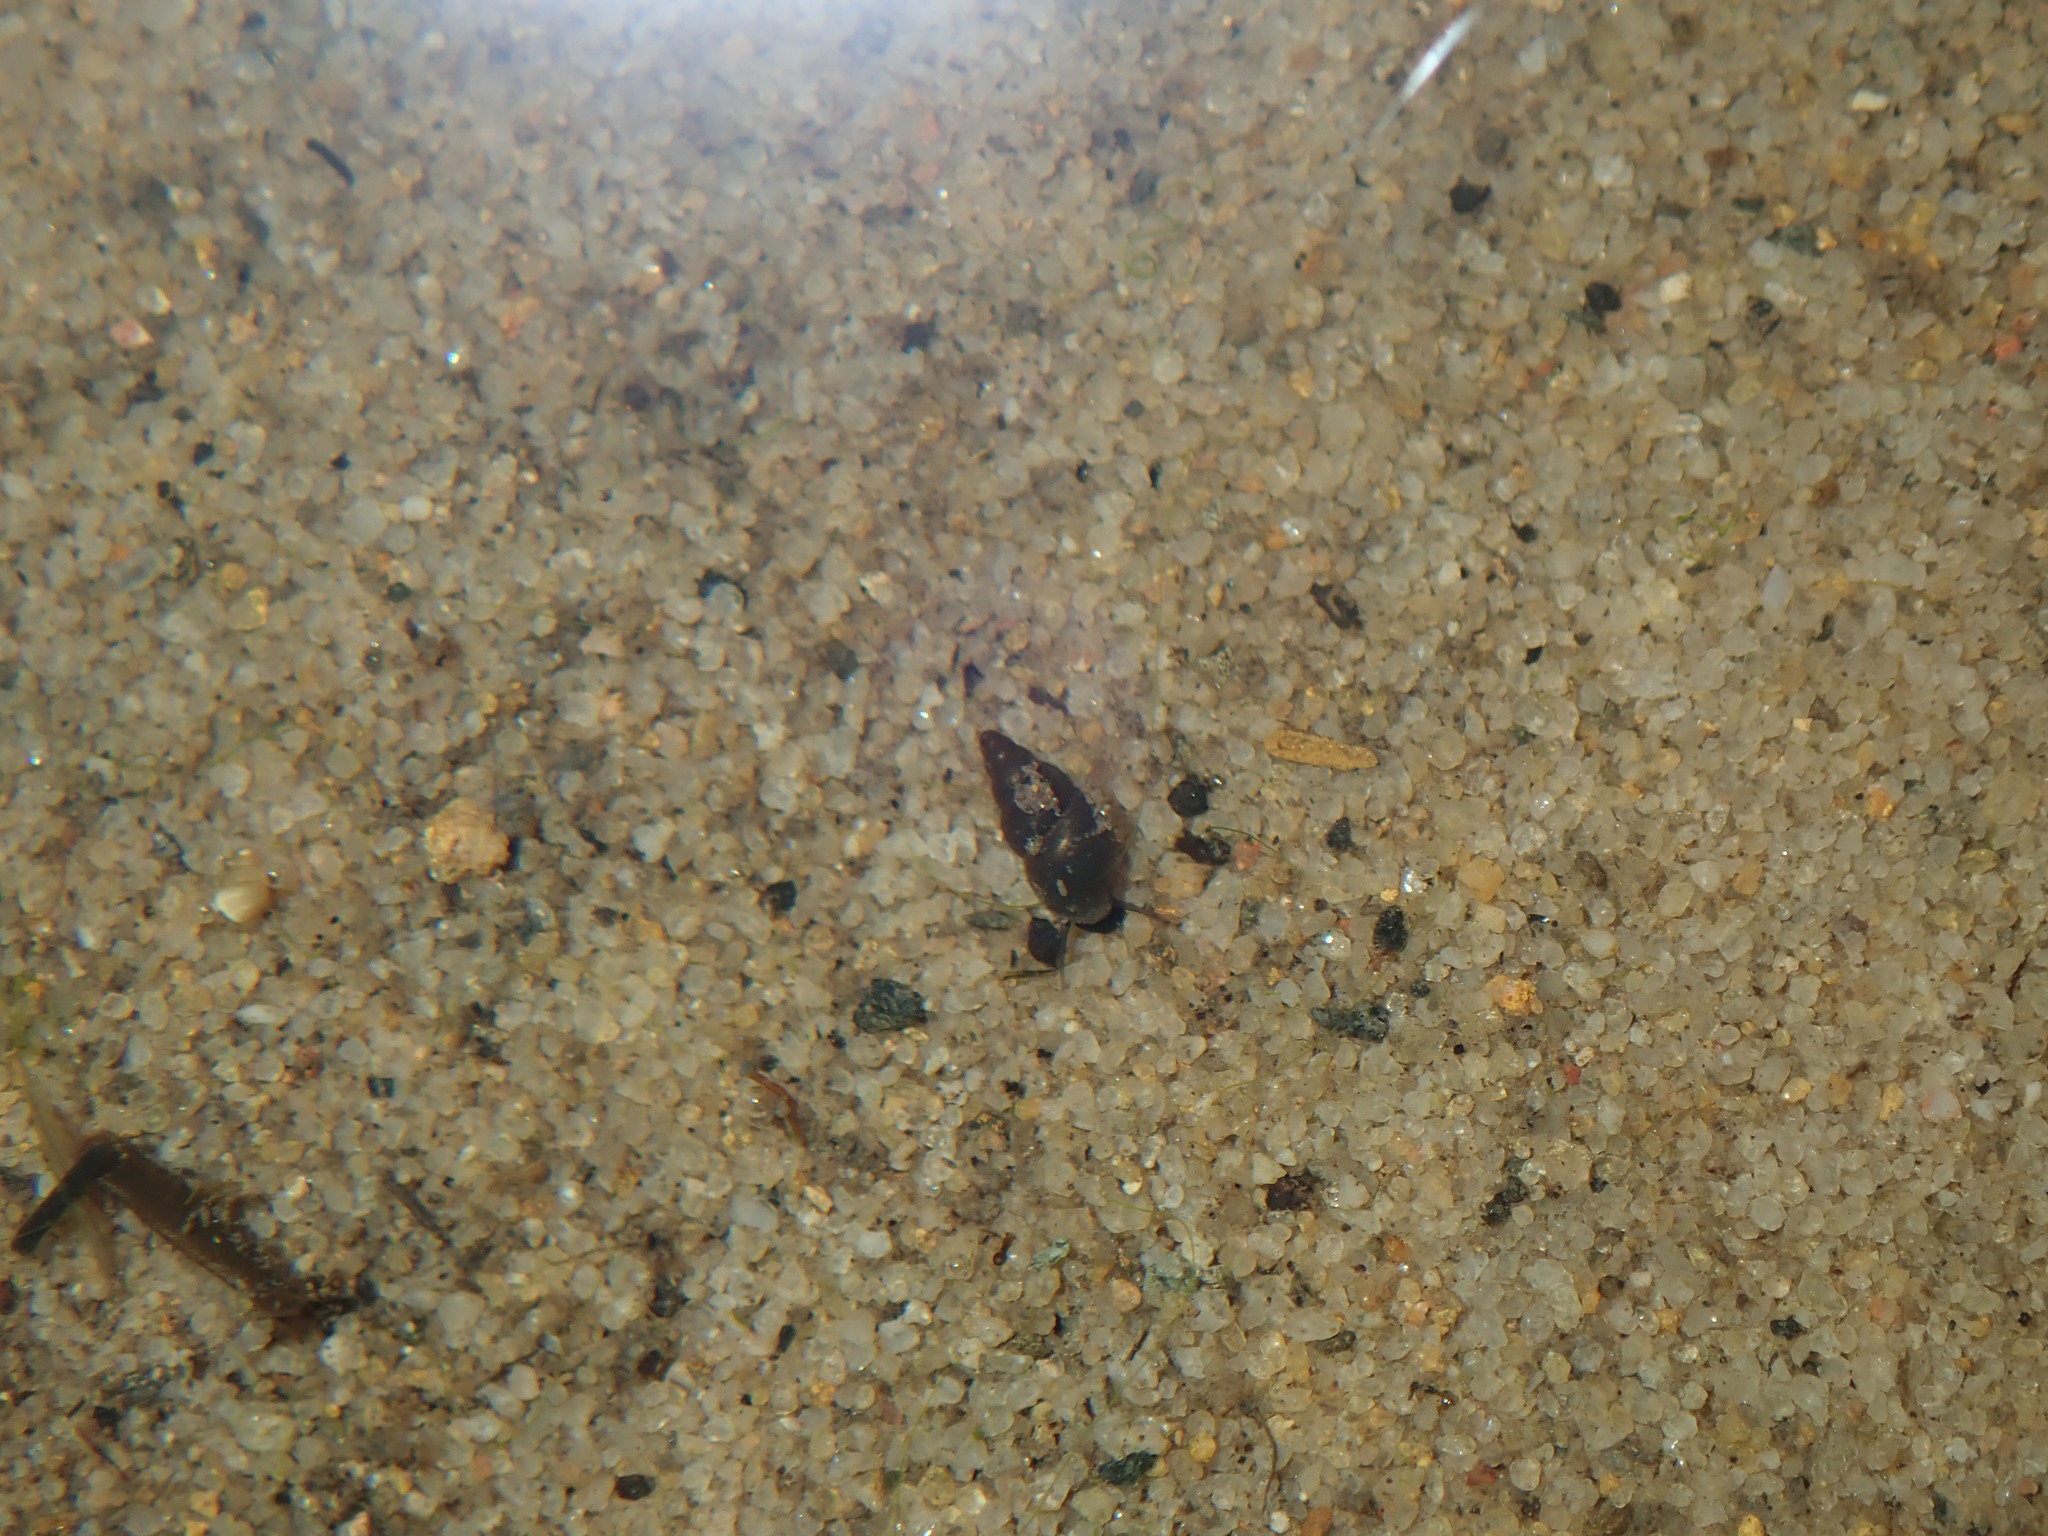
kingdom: Animalia
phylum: Mollusca
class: Gastropoda
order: Littorinimorpha
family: Tateidae
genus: Potamopyrgus
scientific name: Potamopyrgus antipodarum
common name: Jenkins' spire snail
